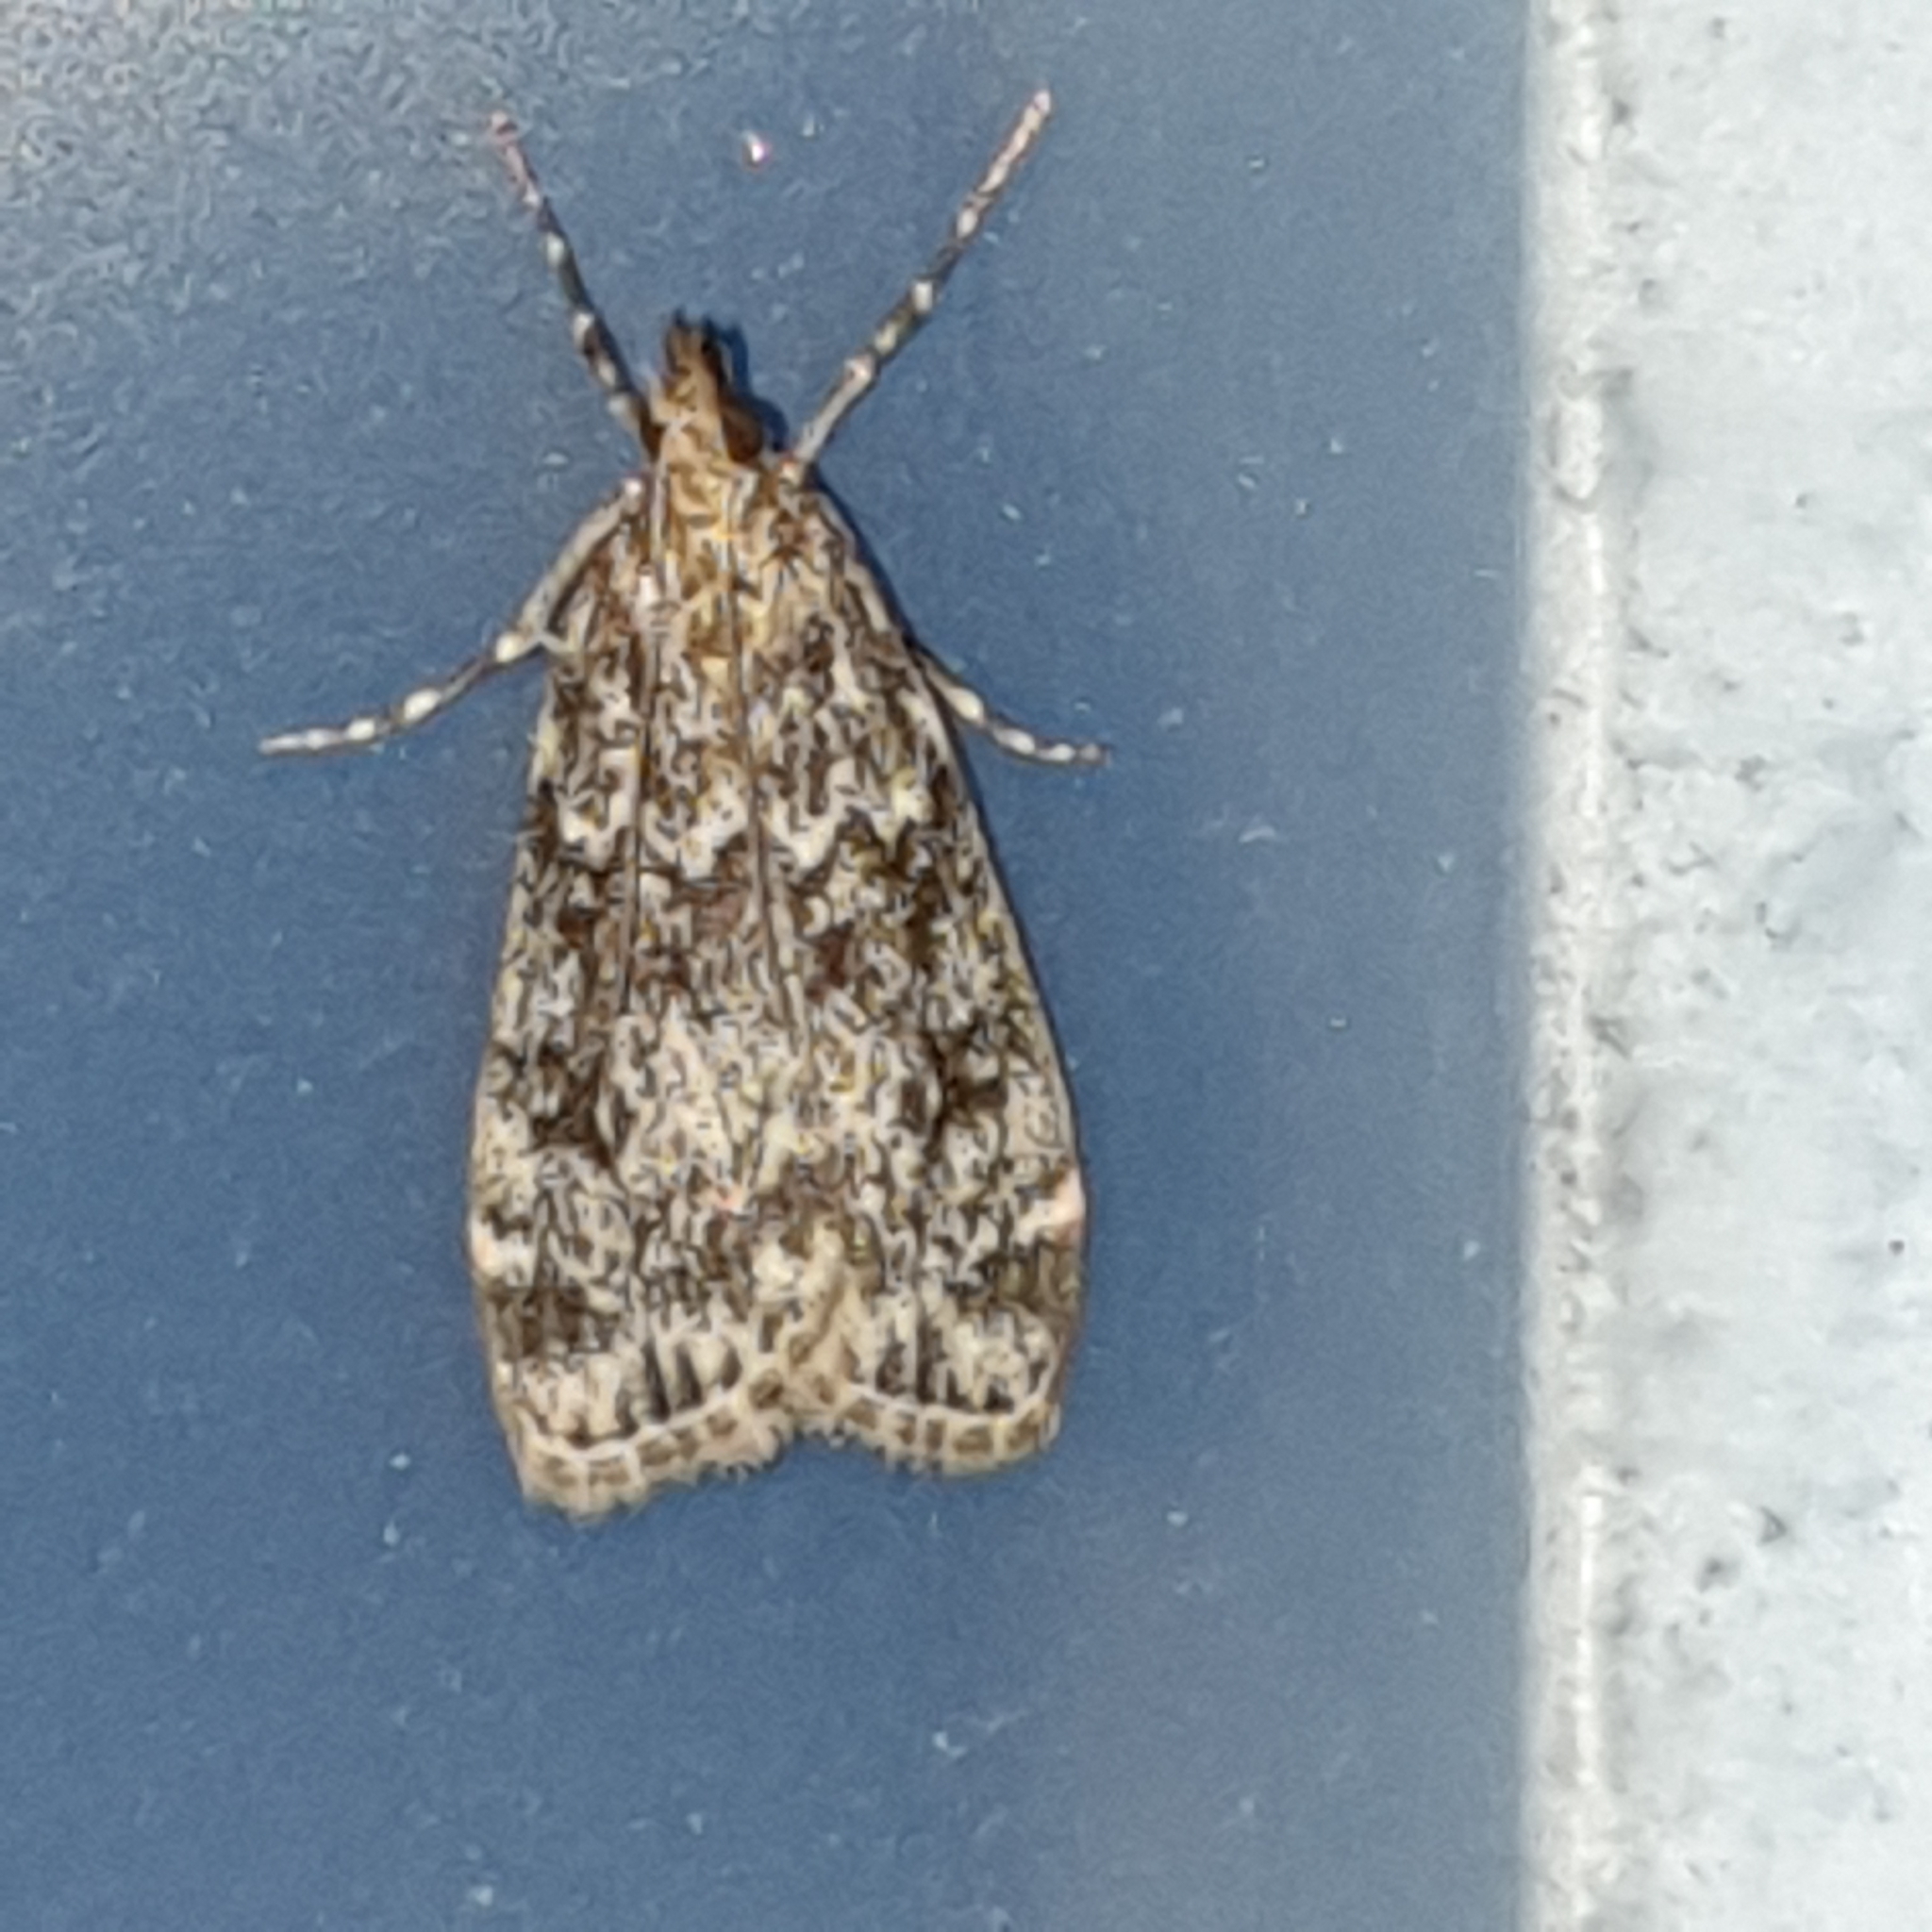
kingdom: Animalia
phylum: Arthropoda
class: Insecta
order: Lepidoptera
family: Crambidae
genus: Eudonia
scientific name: Eudonia truncicolella
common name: Ground-moss grey
